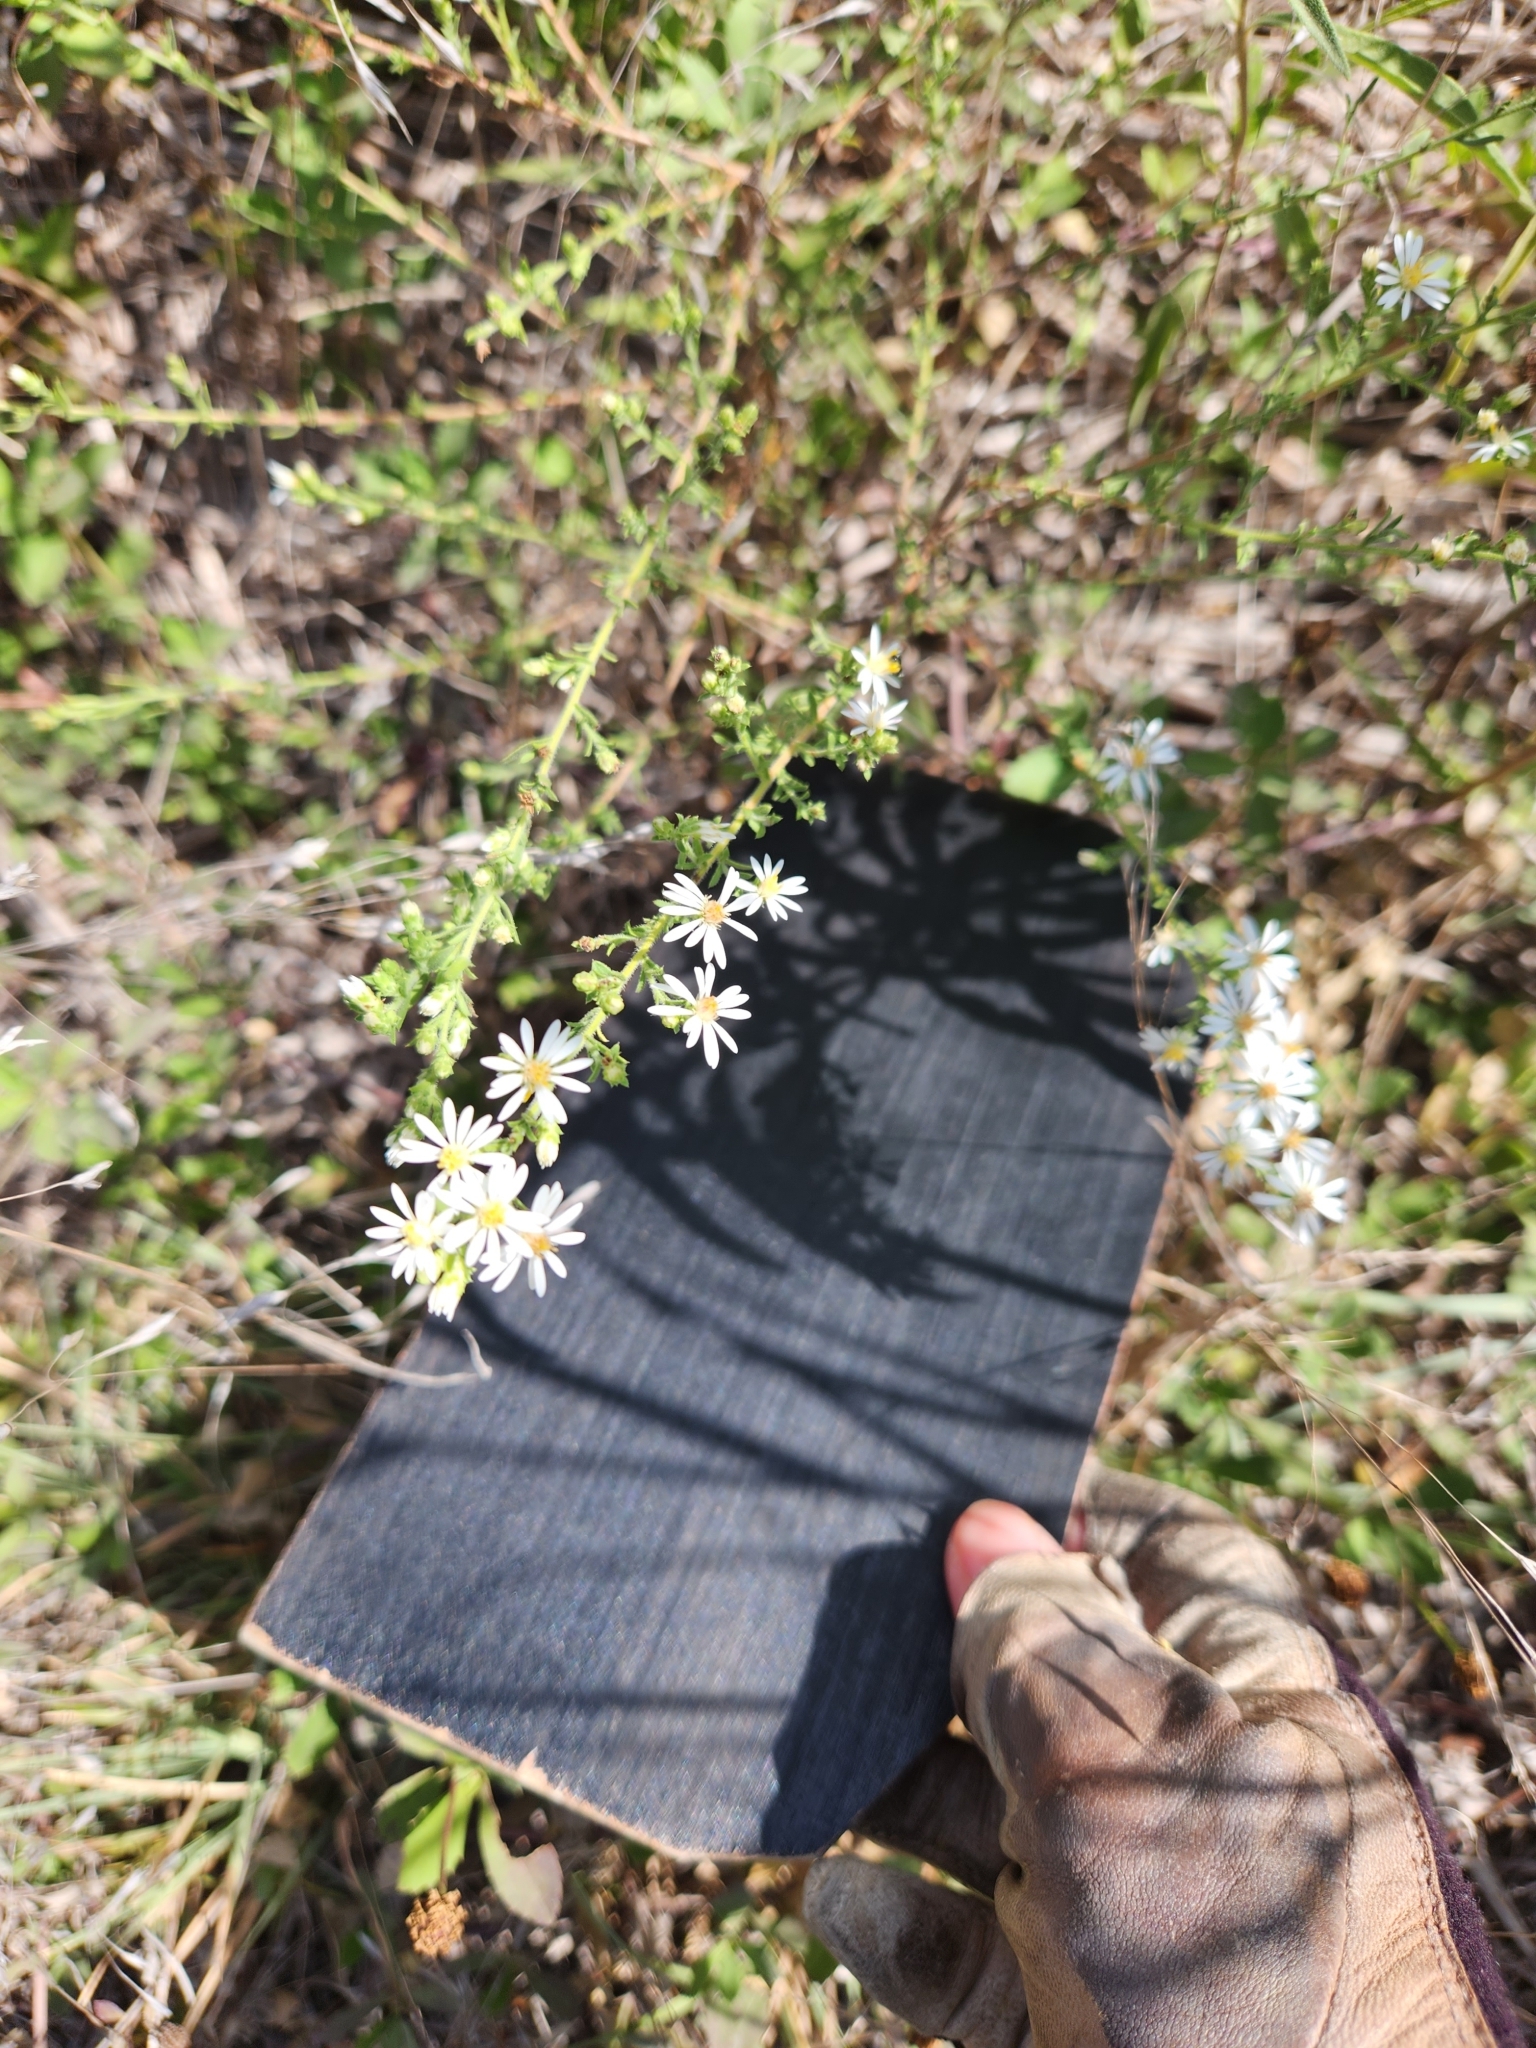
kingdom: Plantae
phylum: Tracheophyta
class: Magnoliopsida
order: Asterales
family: Asteraceae
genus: Symphyotrichum
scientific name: Symphyotrichum ericoides
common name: Heath aster
